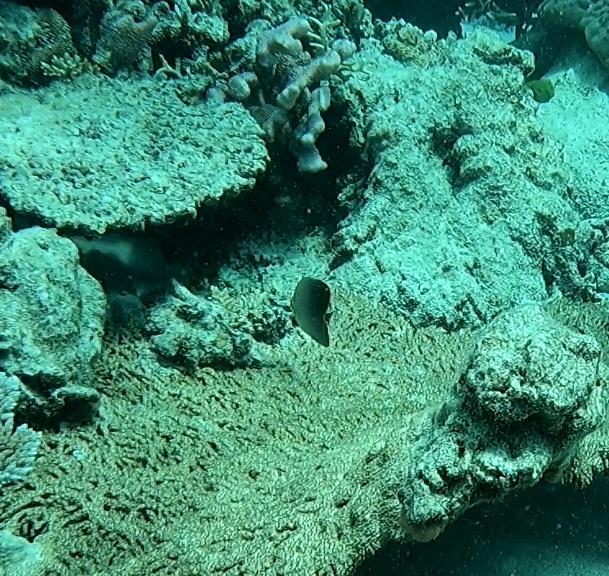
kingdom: Animalia
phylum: Chordata
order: Perciformes
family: Chaetodontidae
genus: Chaetodon
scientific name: Chaetodon baronessa
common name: Triangular butterflyfish
